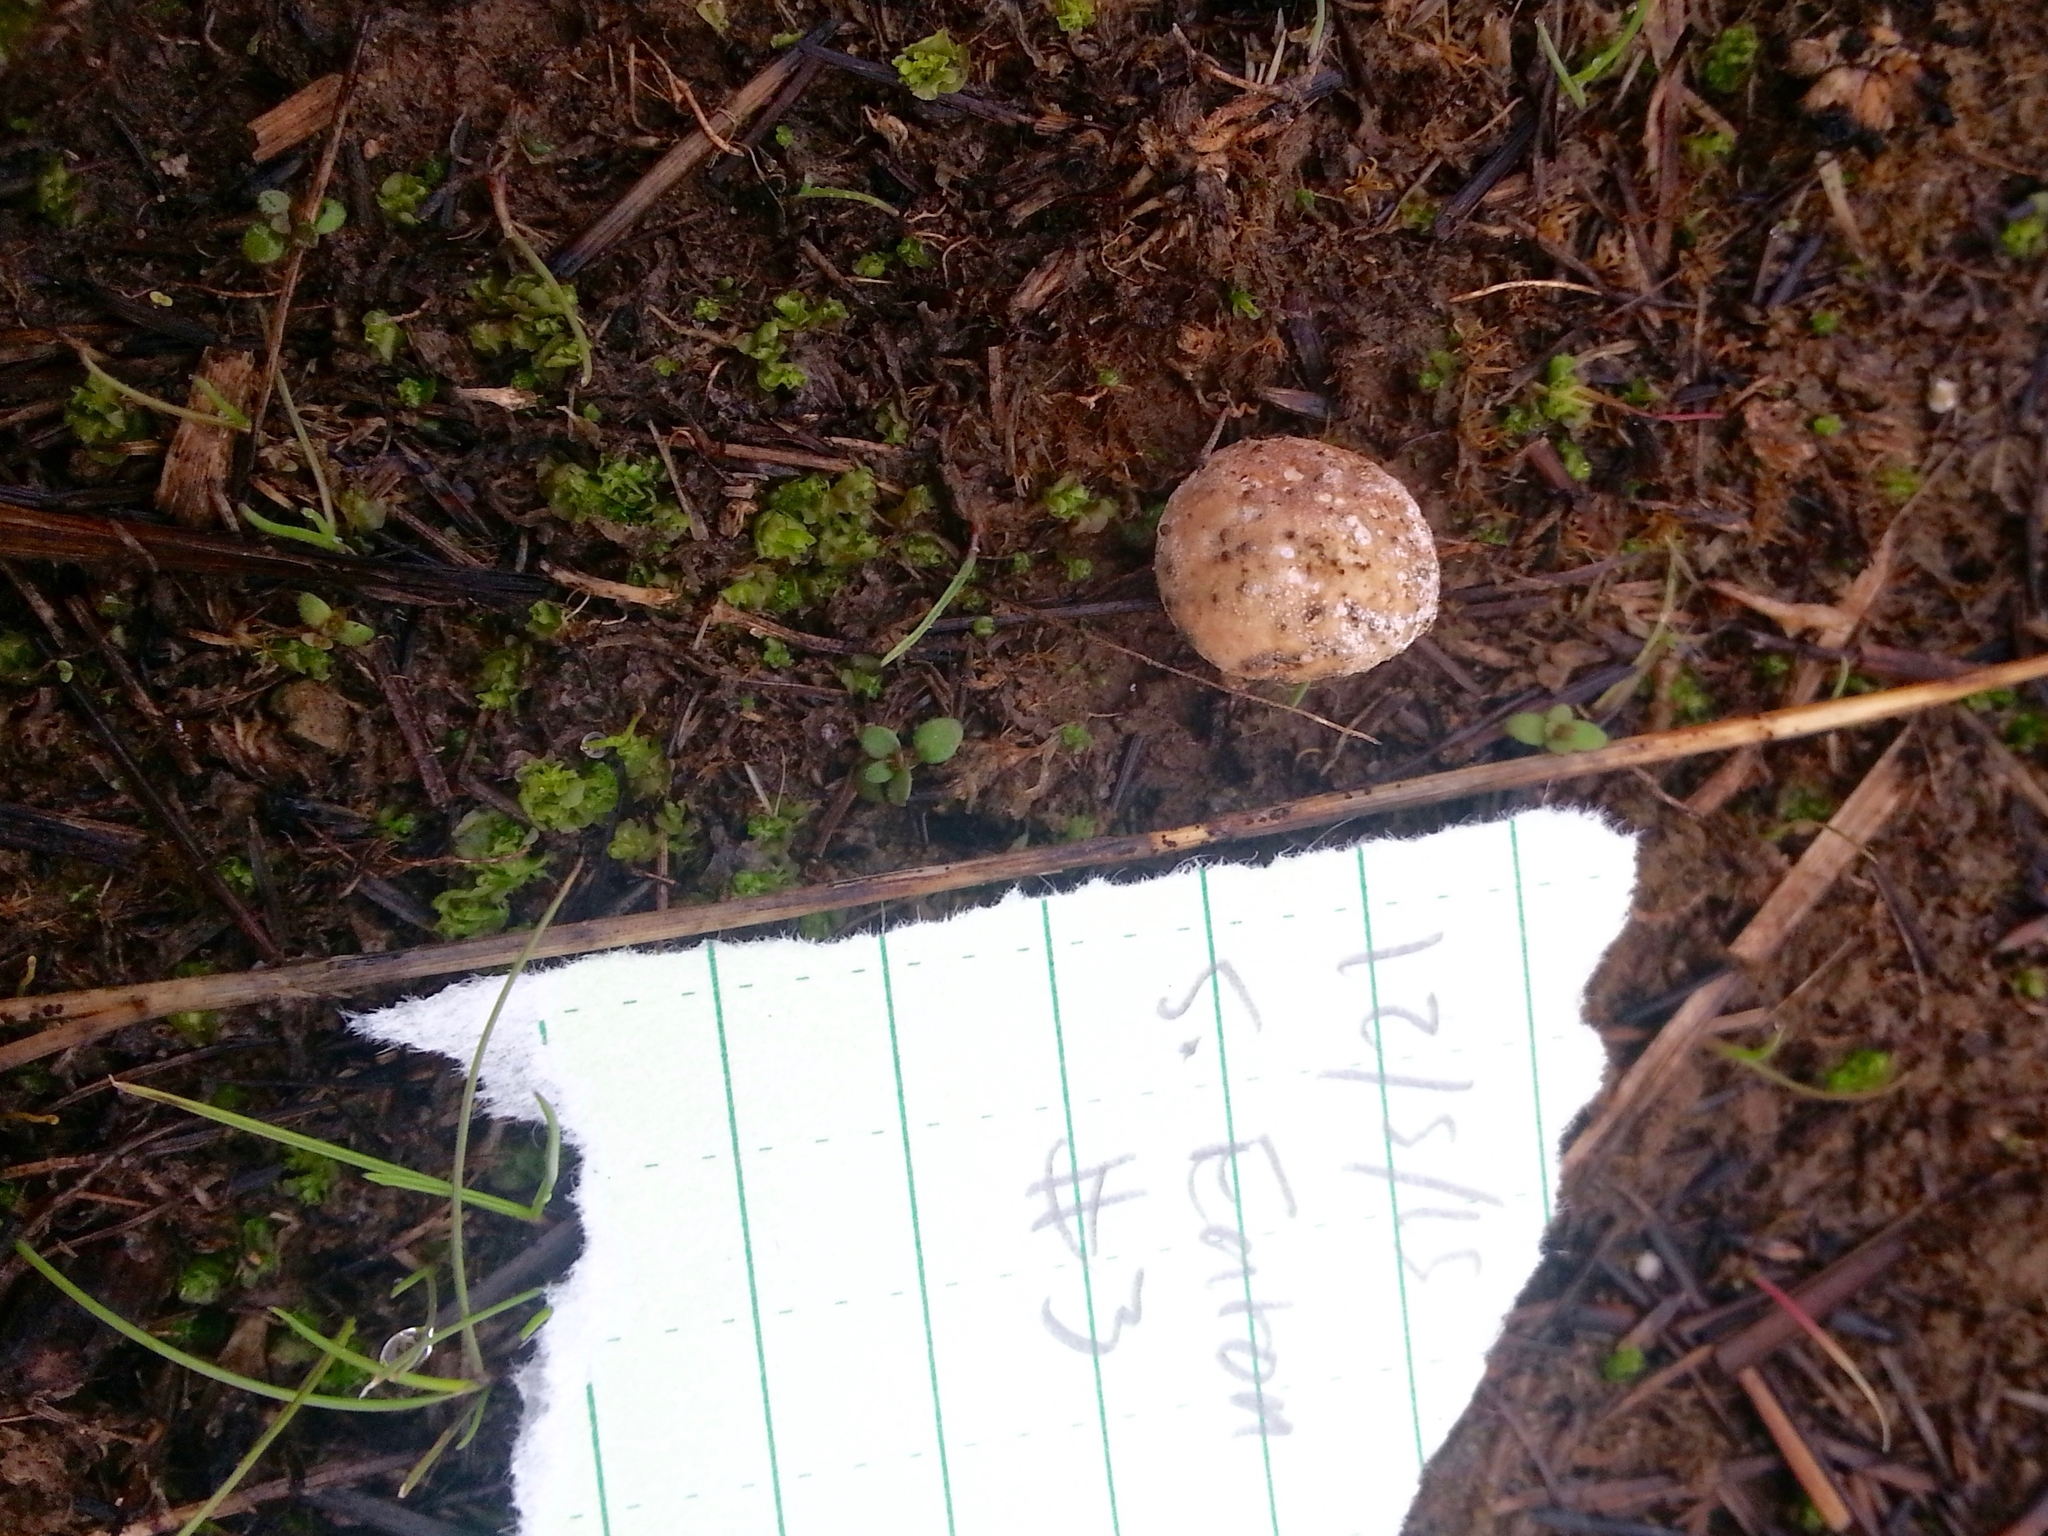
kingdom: Fungi
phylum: Basidiomycota
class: Agaricomycetes
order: Agaricales
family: Lycoperdaceae
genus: Lycoperdon
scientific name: Lycoperdon dermoxanthum
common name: Dwarf puffball
